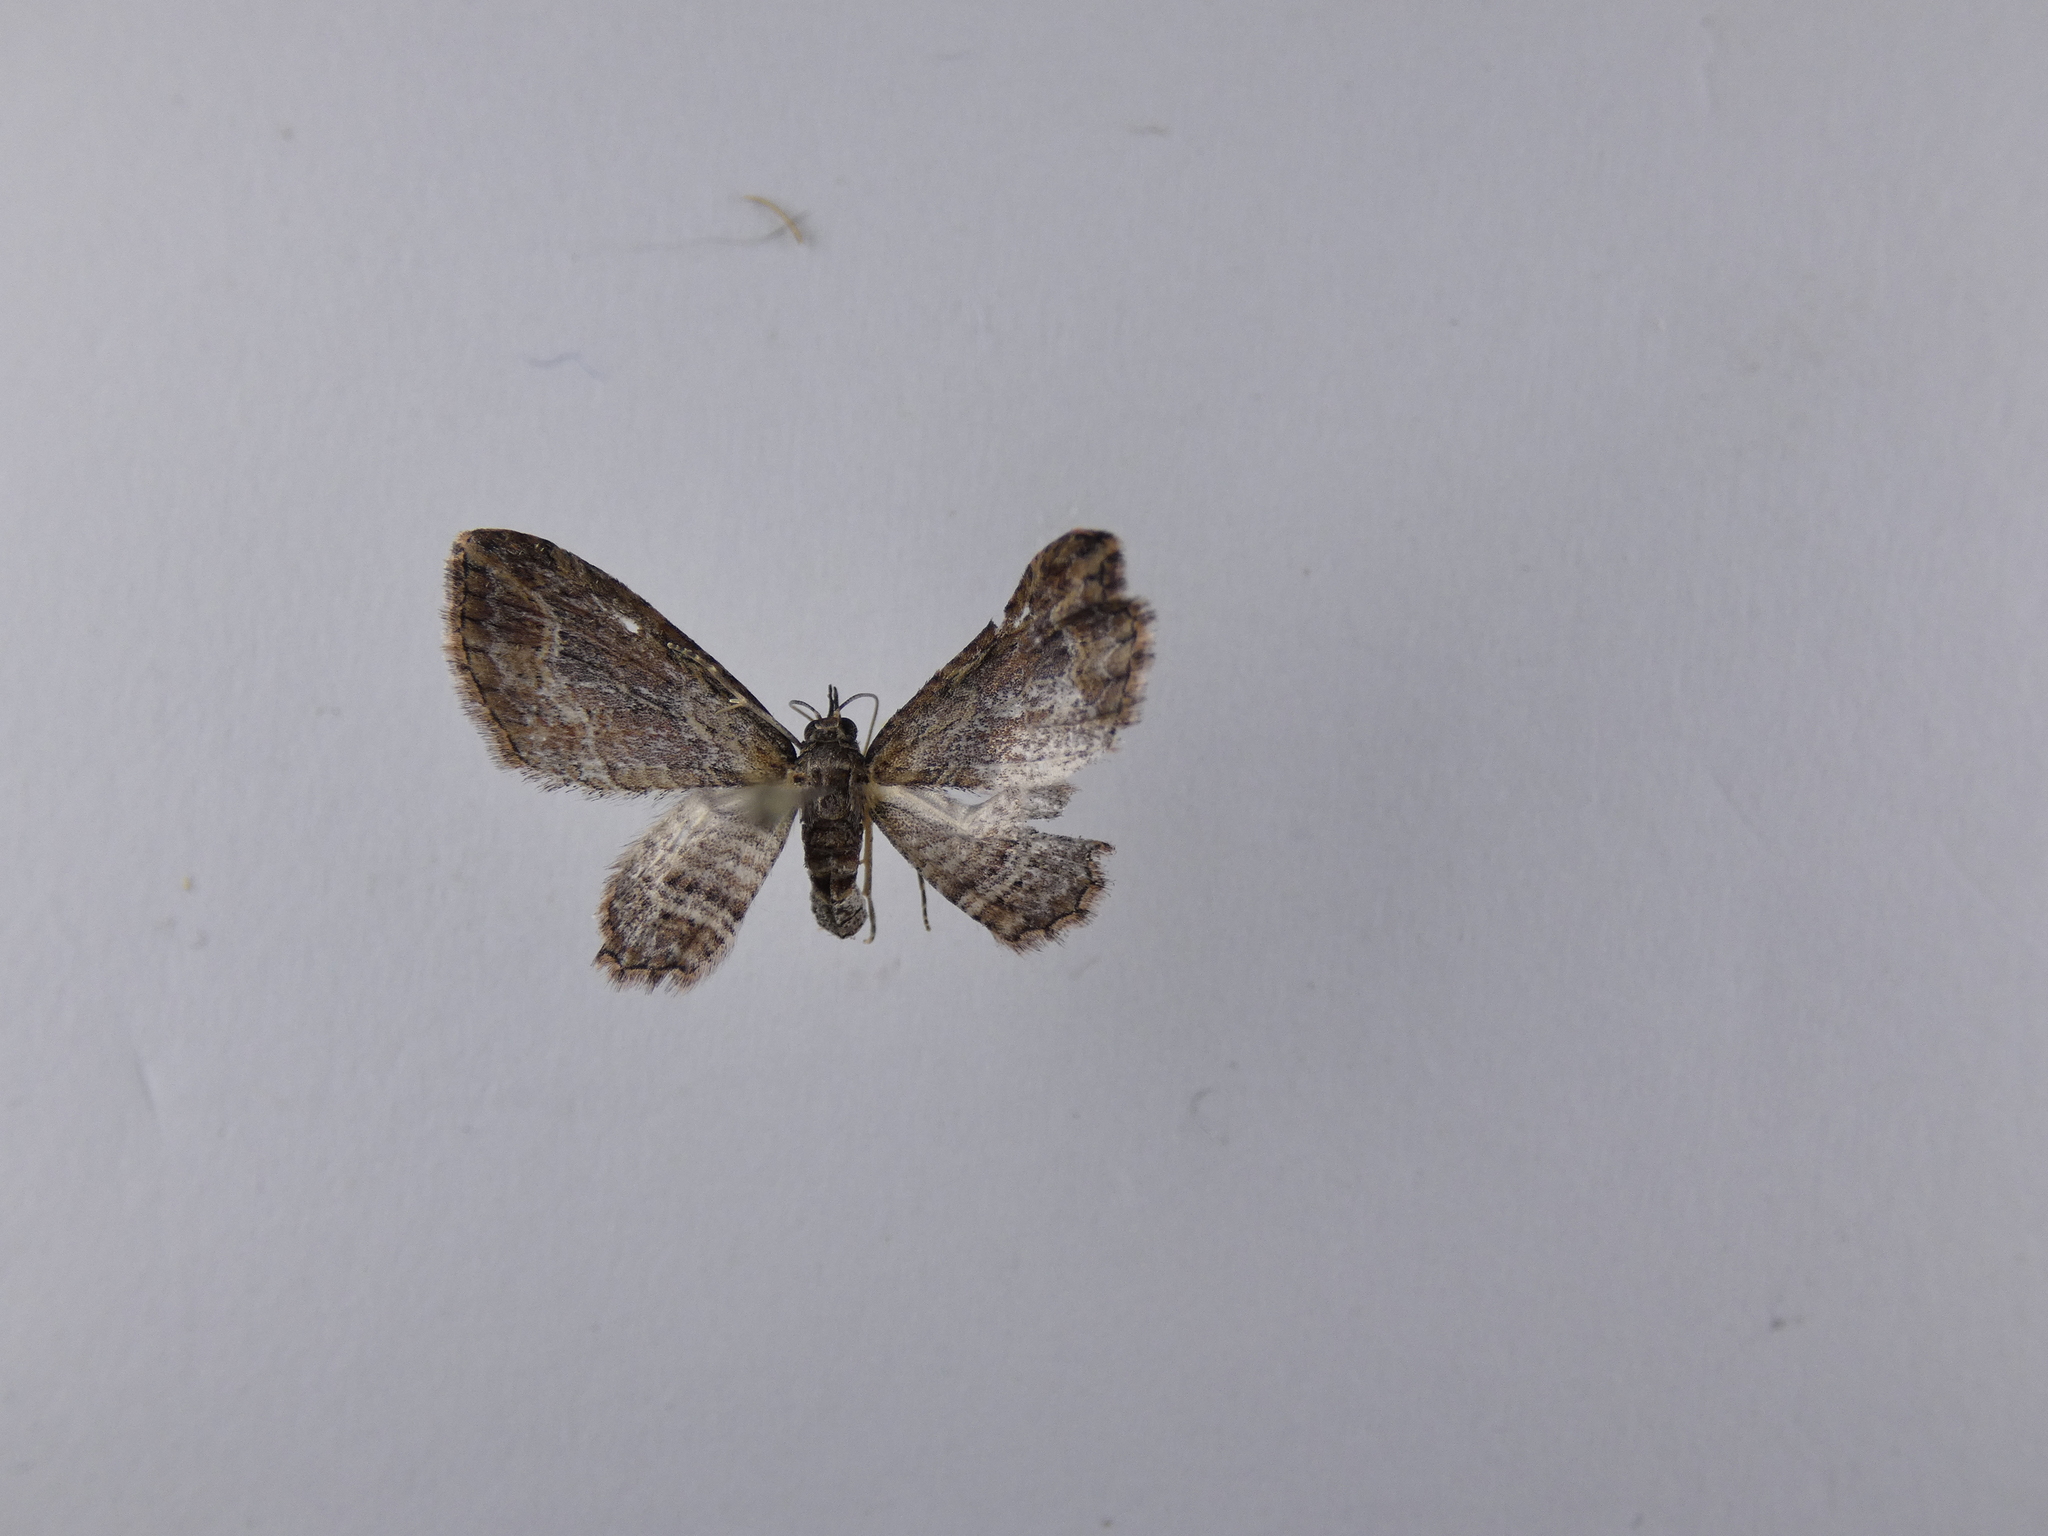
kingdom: Animalia
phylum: Arthropoda
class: Insecta
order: Lepidoptera
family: Geometridae
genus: Chloroclystis
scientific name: Chloroclystis filata
